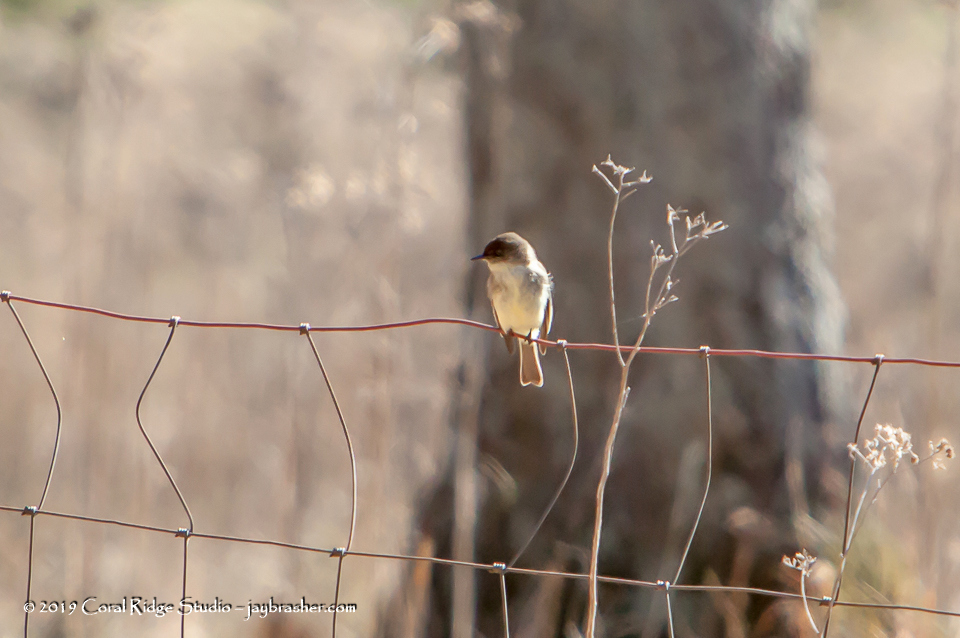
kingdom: Animalia
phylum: Chordata
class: Aves
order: Passeriformes
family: Tyrannidae
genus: Sayornis
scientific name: Sayornis phoebe
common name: Eastern phoebe
